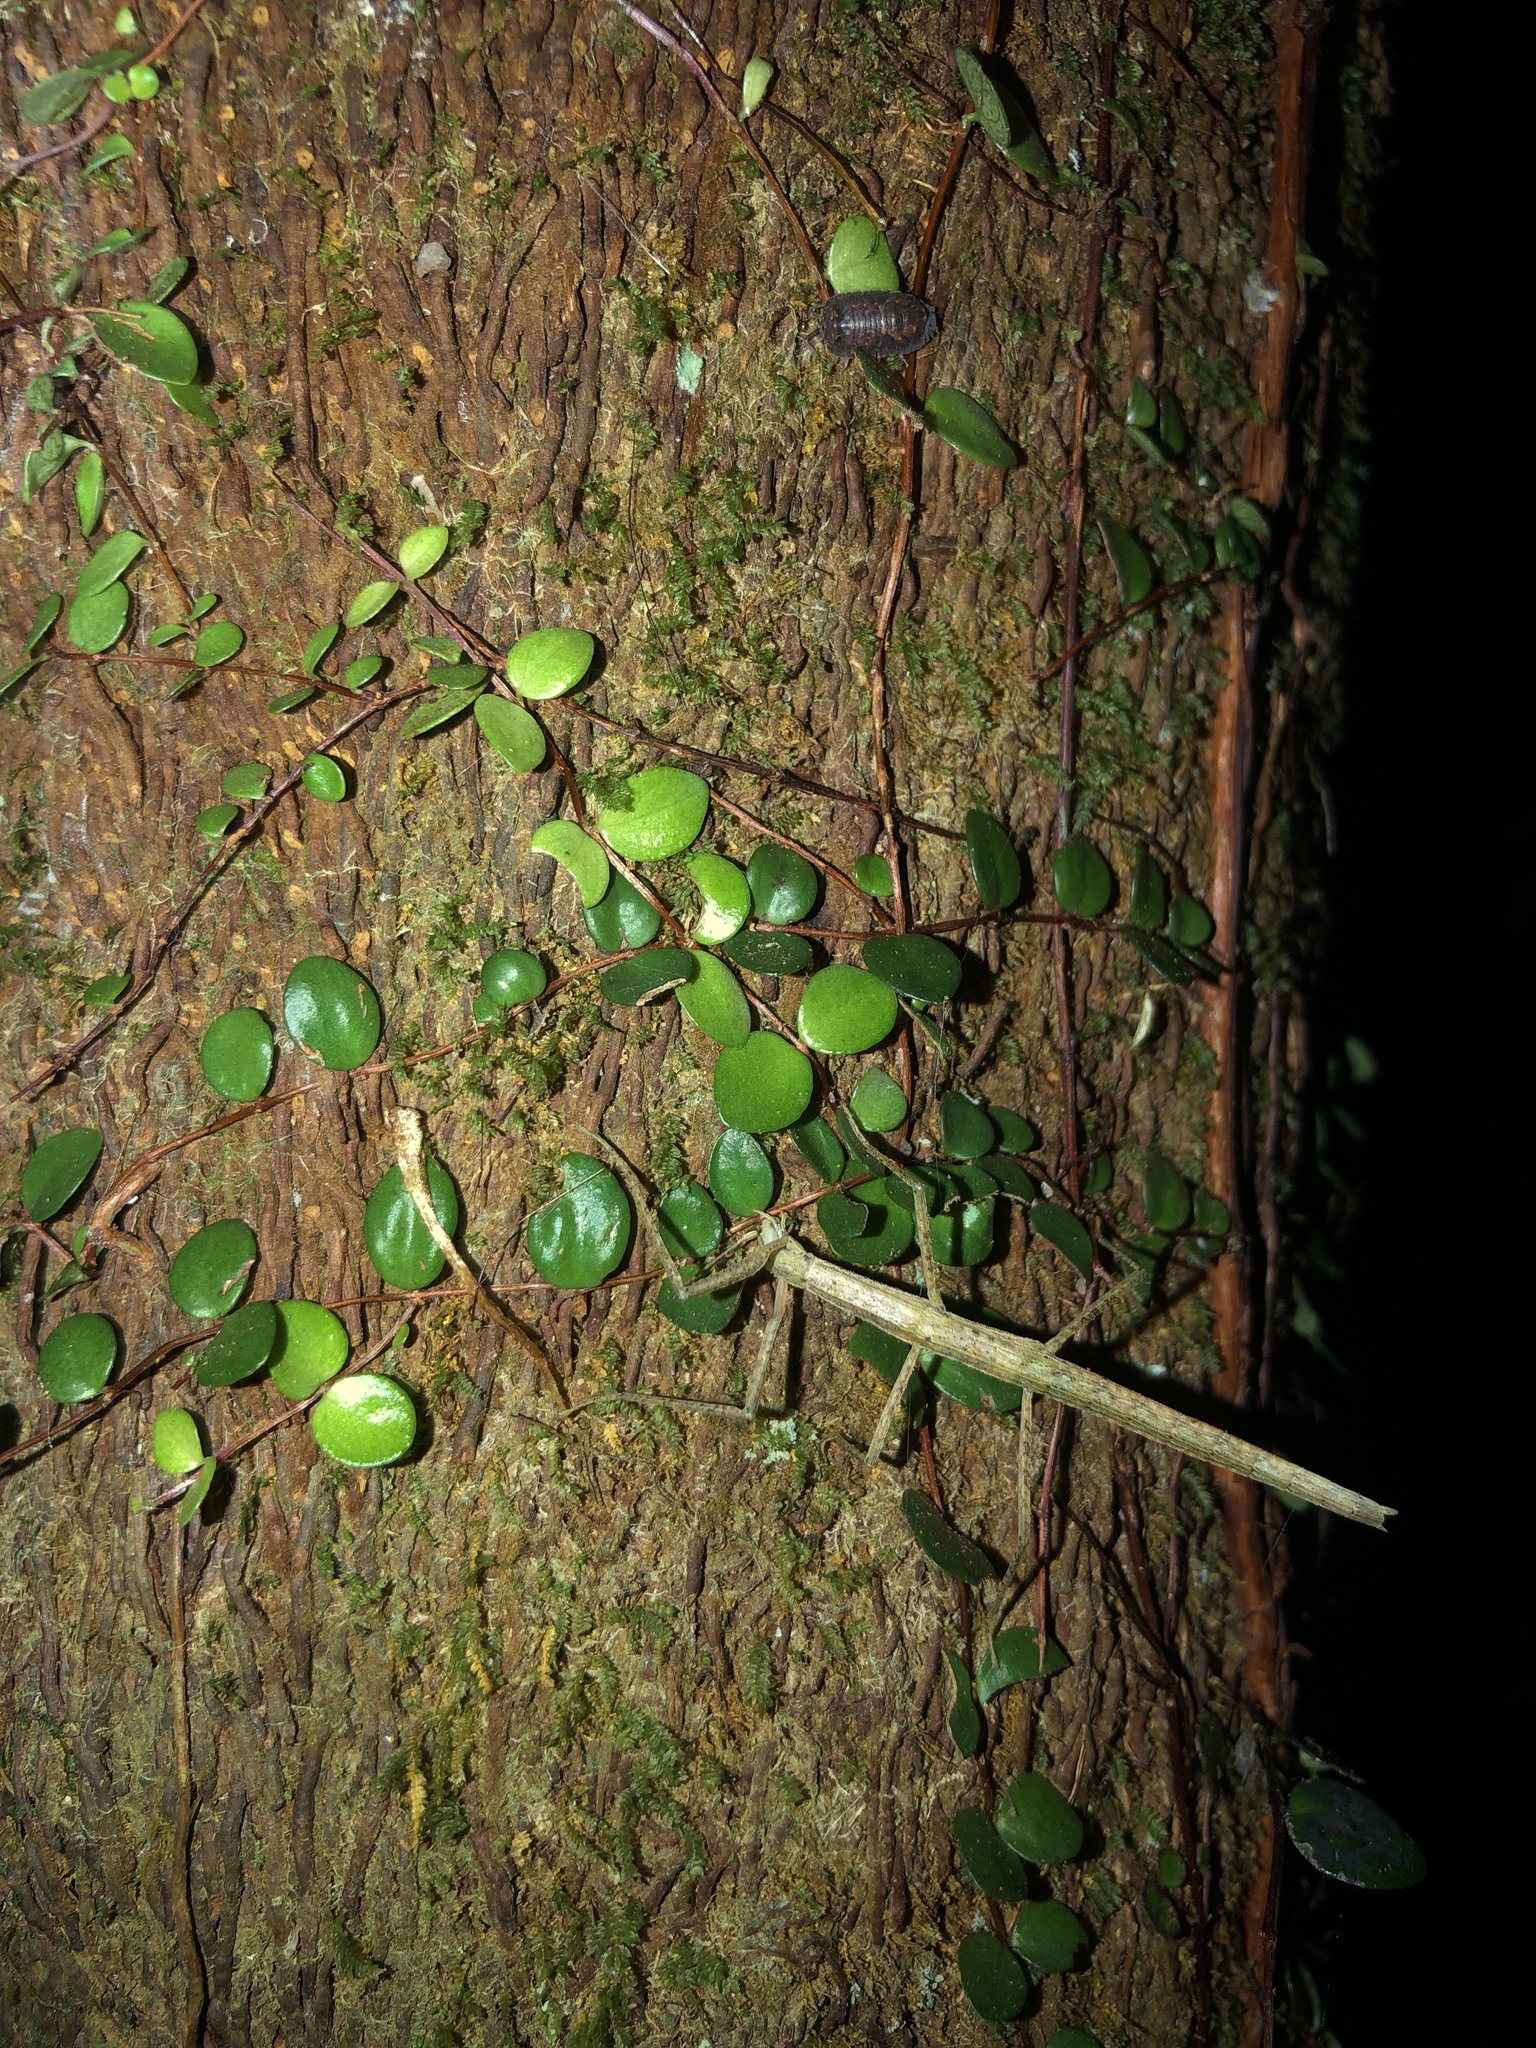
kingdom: Animalia
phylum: Arthropoda
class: Insecta
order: Phasmida
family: Phasmatidae
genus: Tectarchus
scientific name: Tectarchus ovobessus
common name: The rough-skinned ridge-backed stick insect
